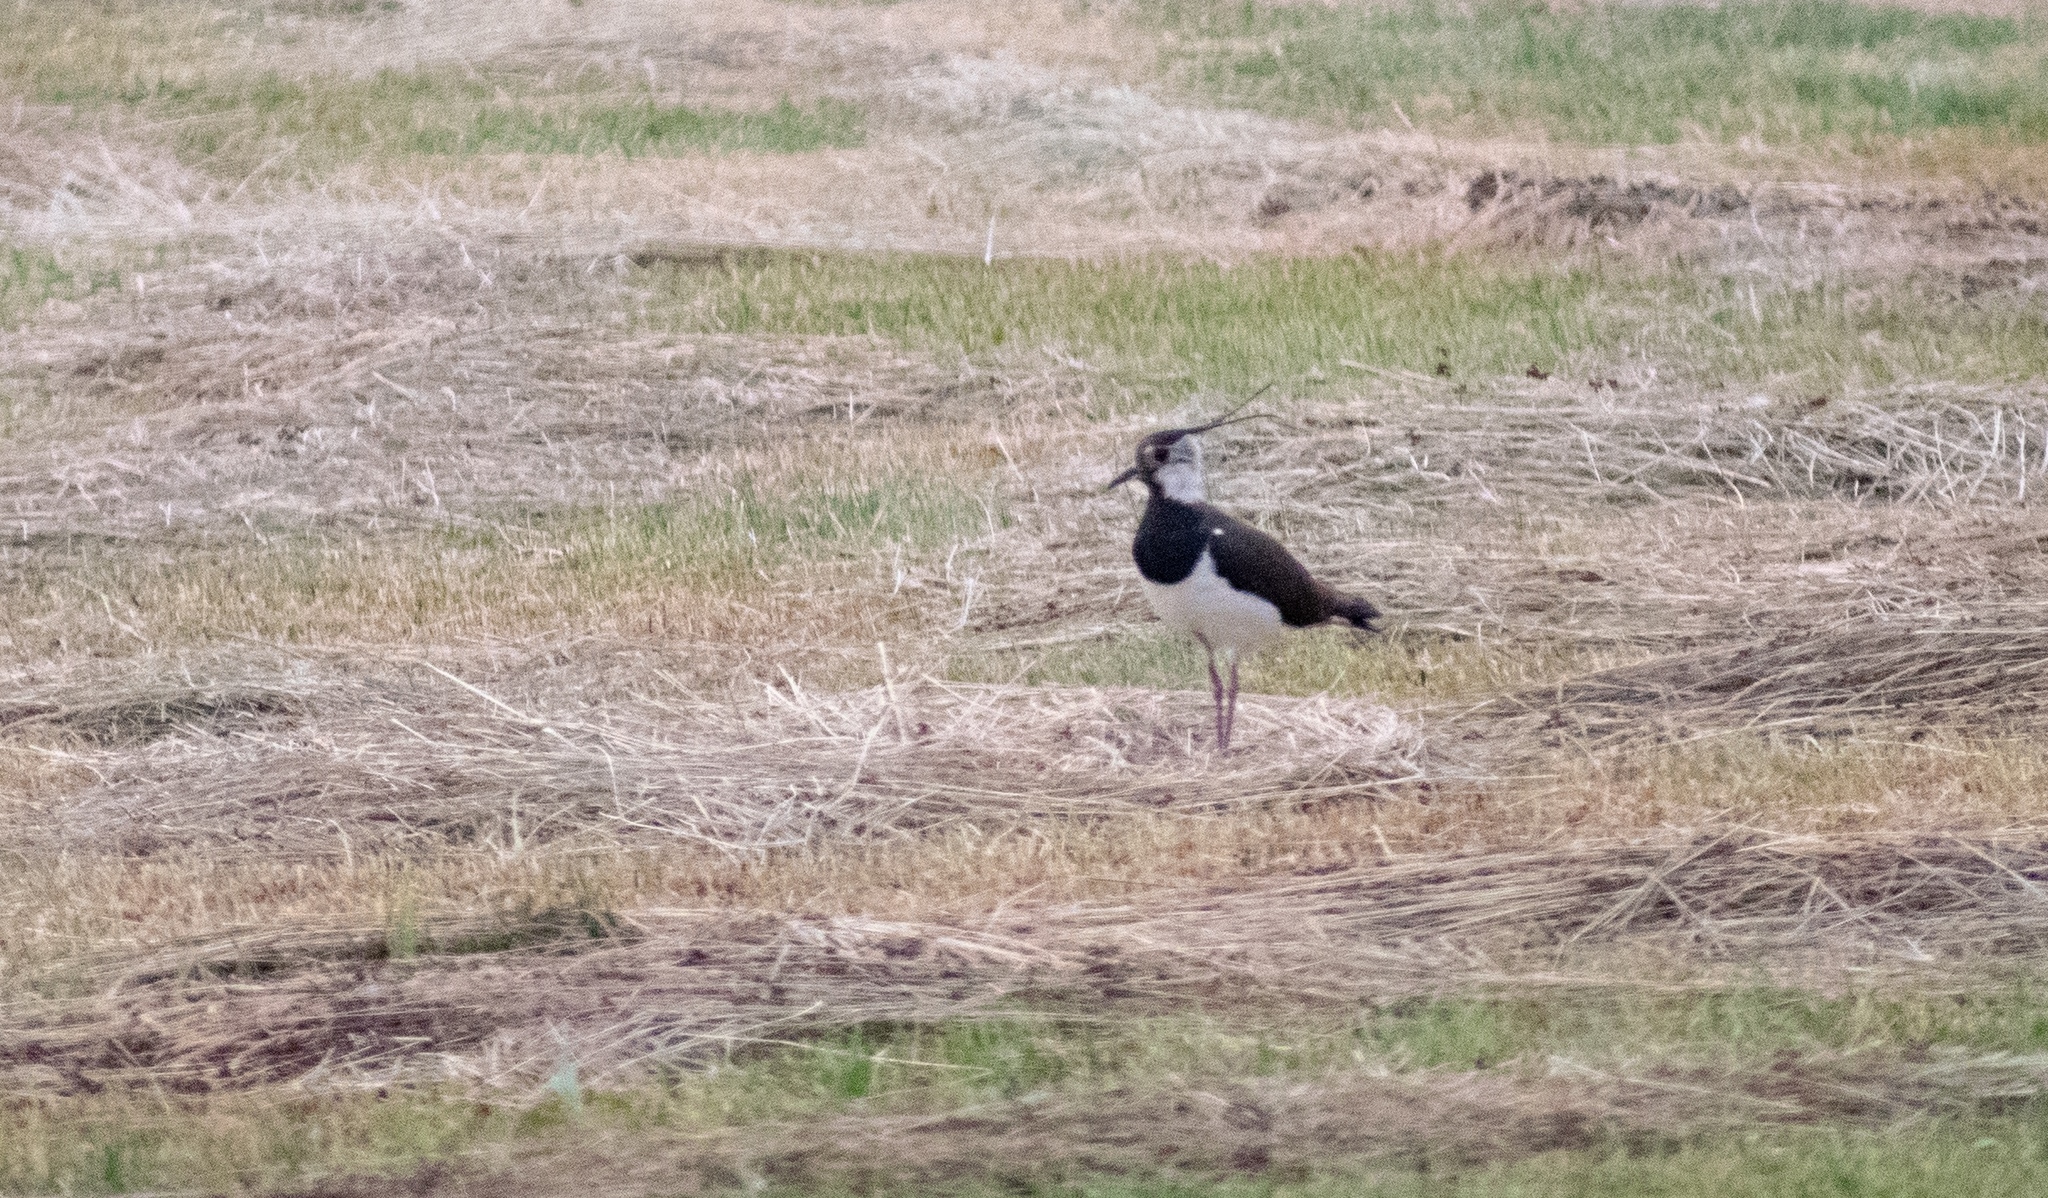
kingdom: Animalia
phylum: Chordata
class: Aves
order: Charadriiformes
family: Charadriidae
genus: Vanellus
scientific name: Vanellus vanellus
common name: Northern lapwing
